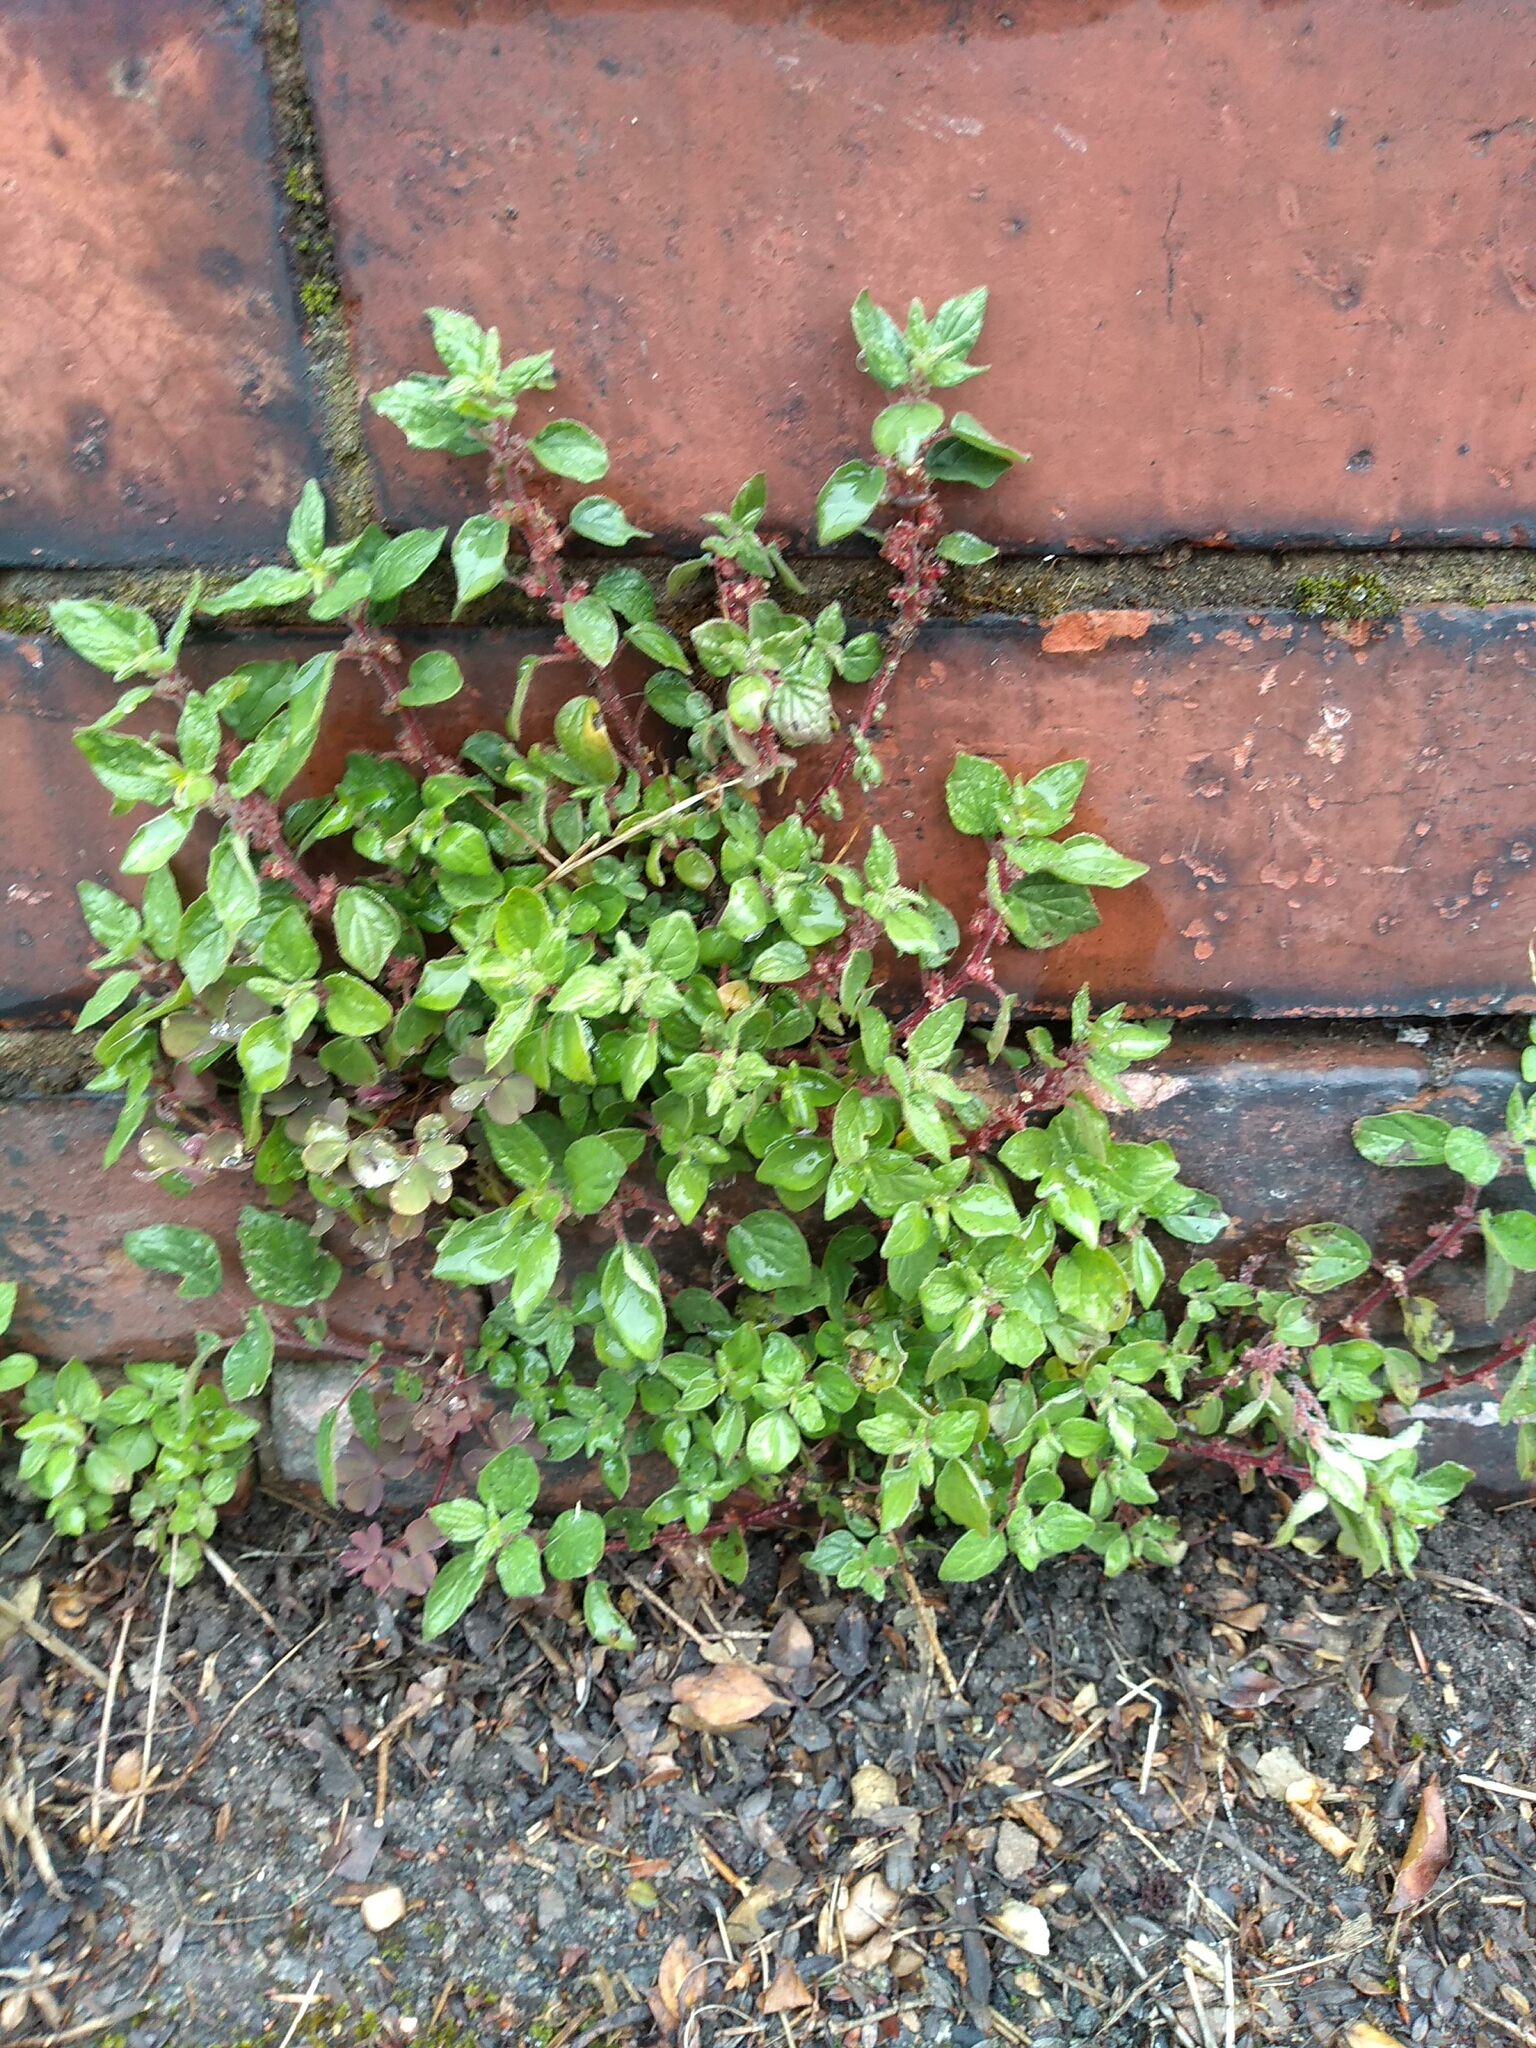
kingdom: Plantae
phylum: Tracheophyta
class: Magnoliopsida
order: Rosales
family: Urticaceae
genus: Parietaria
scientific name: Parietaria judaica
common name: Pellitory-of-the-wall
